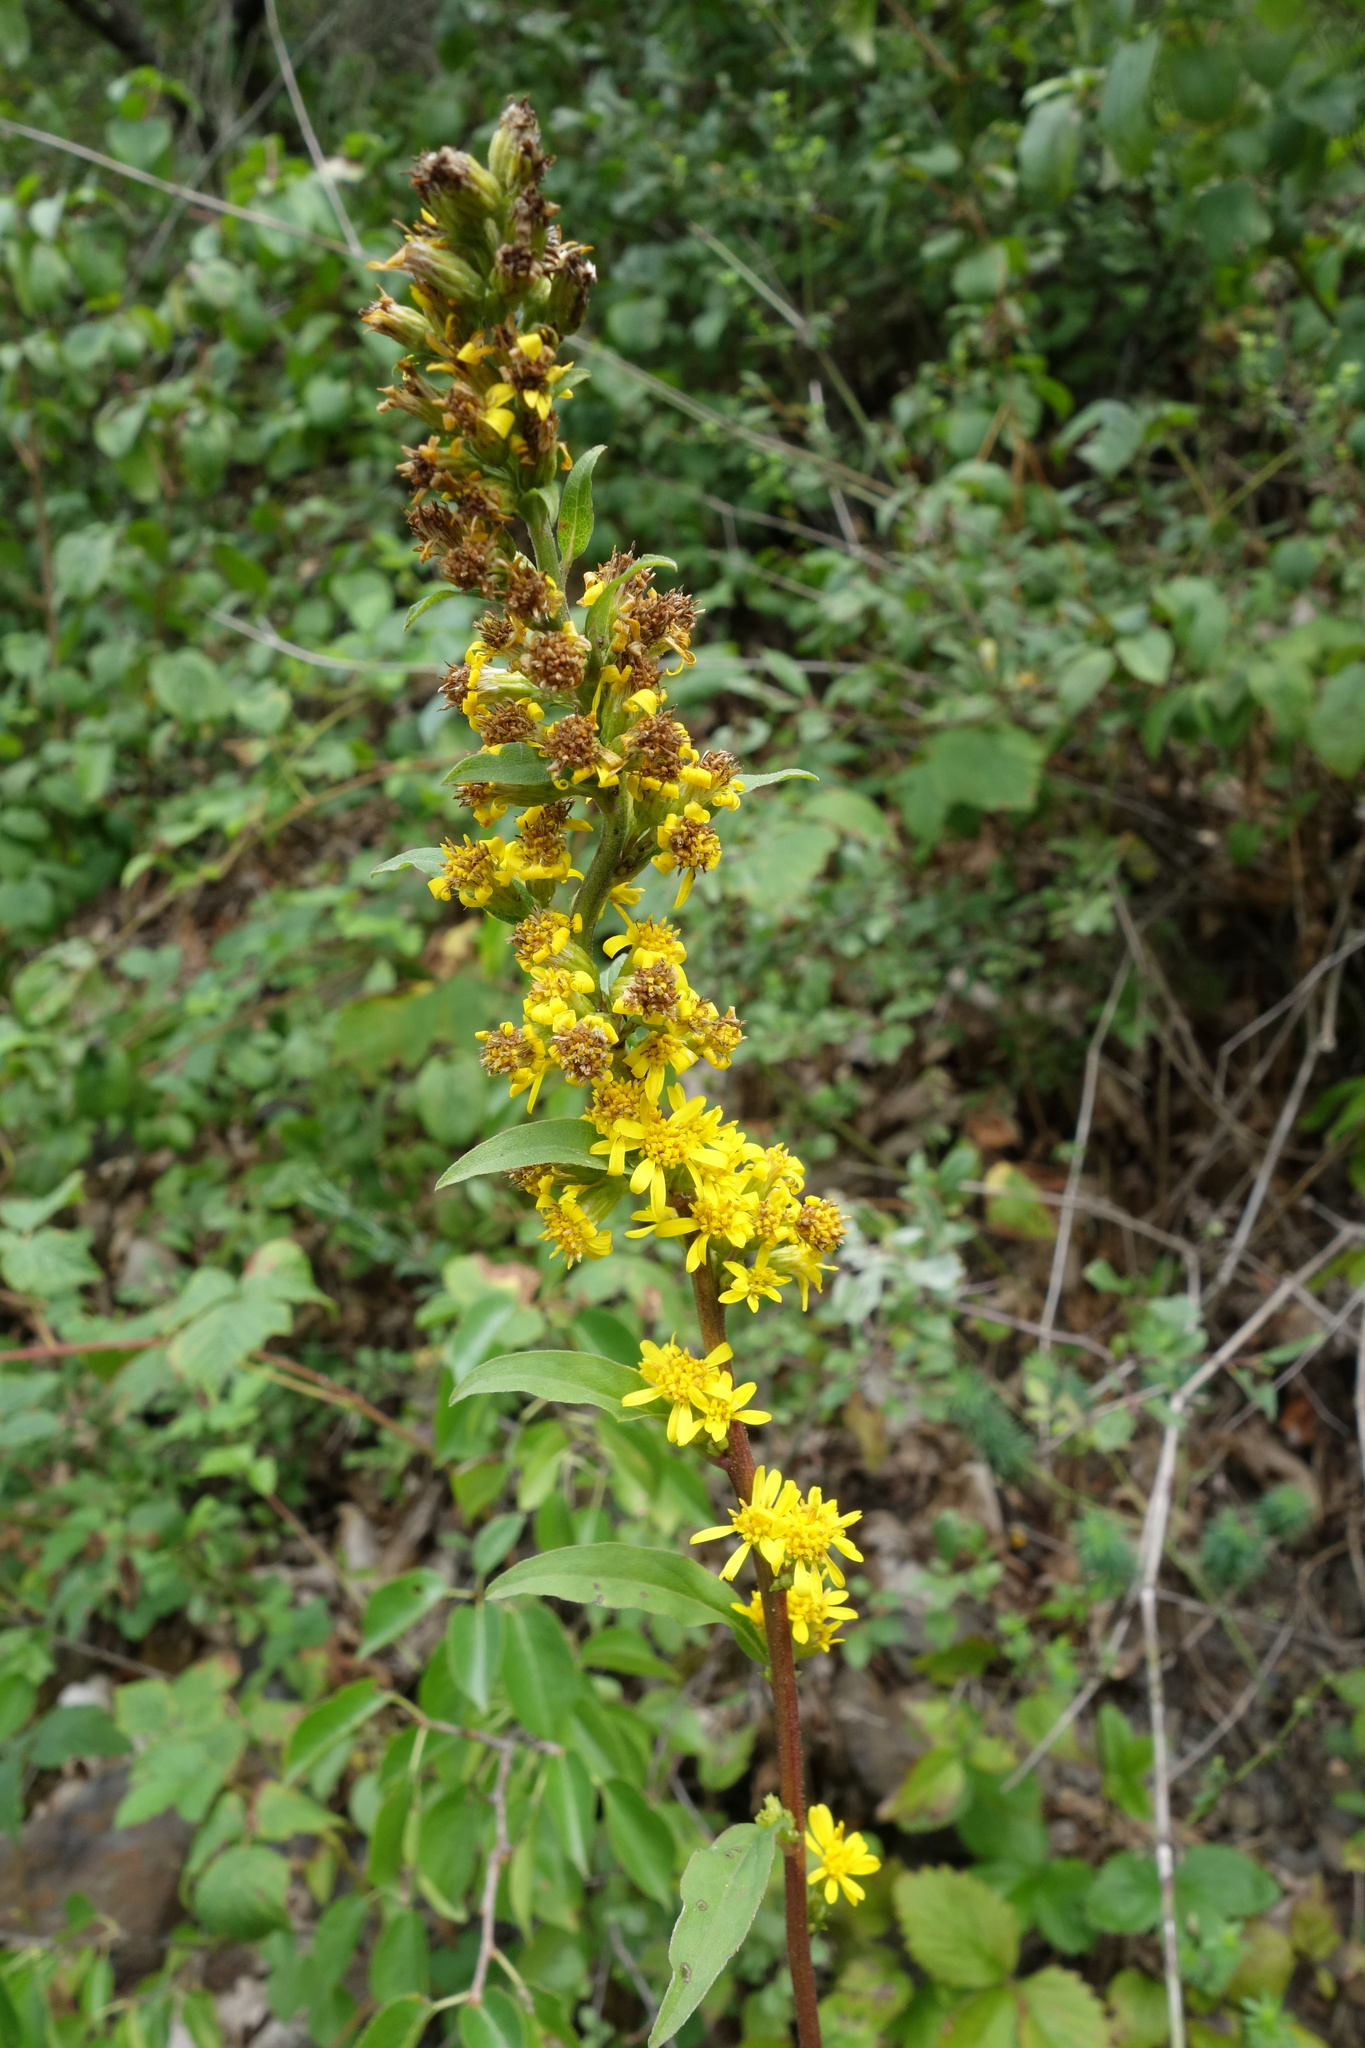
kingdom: Plantae
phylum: Tracheophyta
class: Magnoliopsida
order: Asterales
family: Asteraceae
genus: Solidago
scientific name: Solidago virgaurea
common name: Goldenrod
